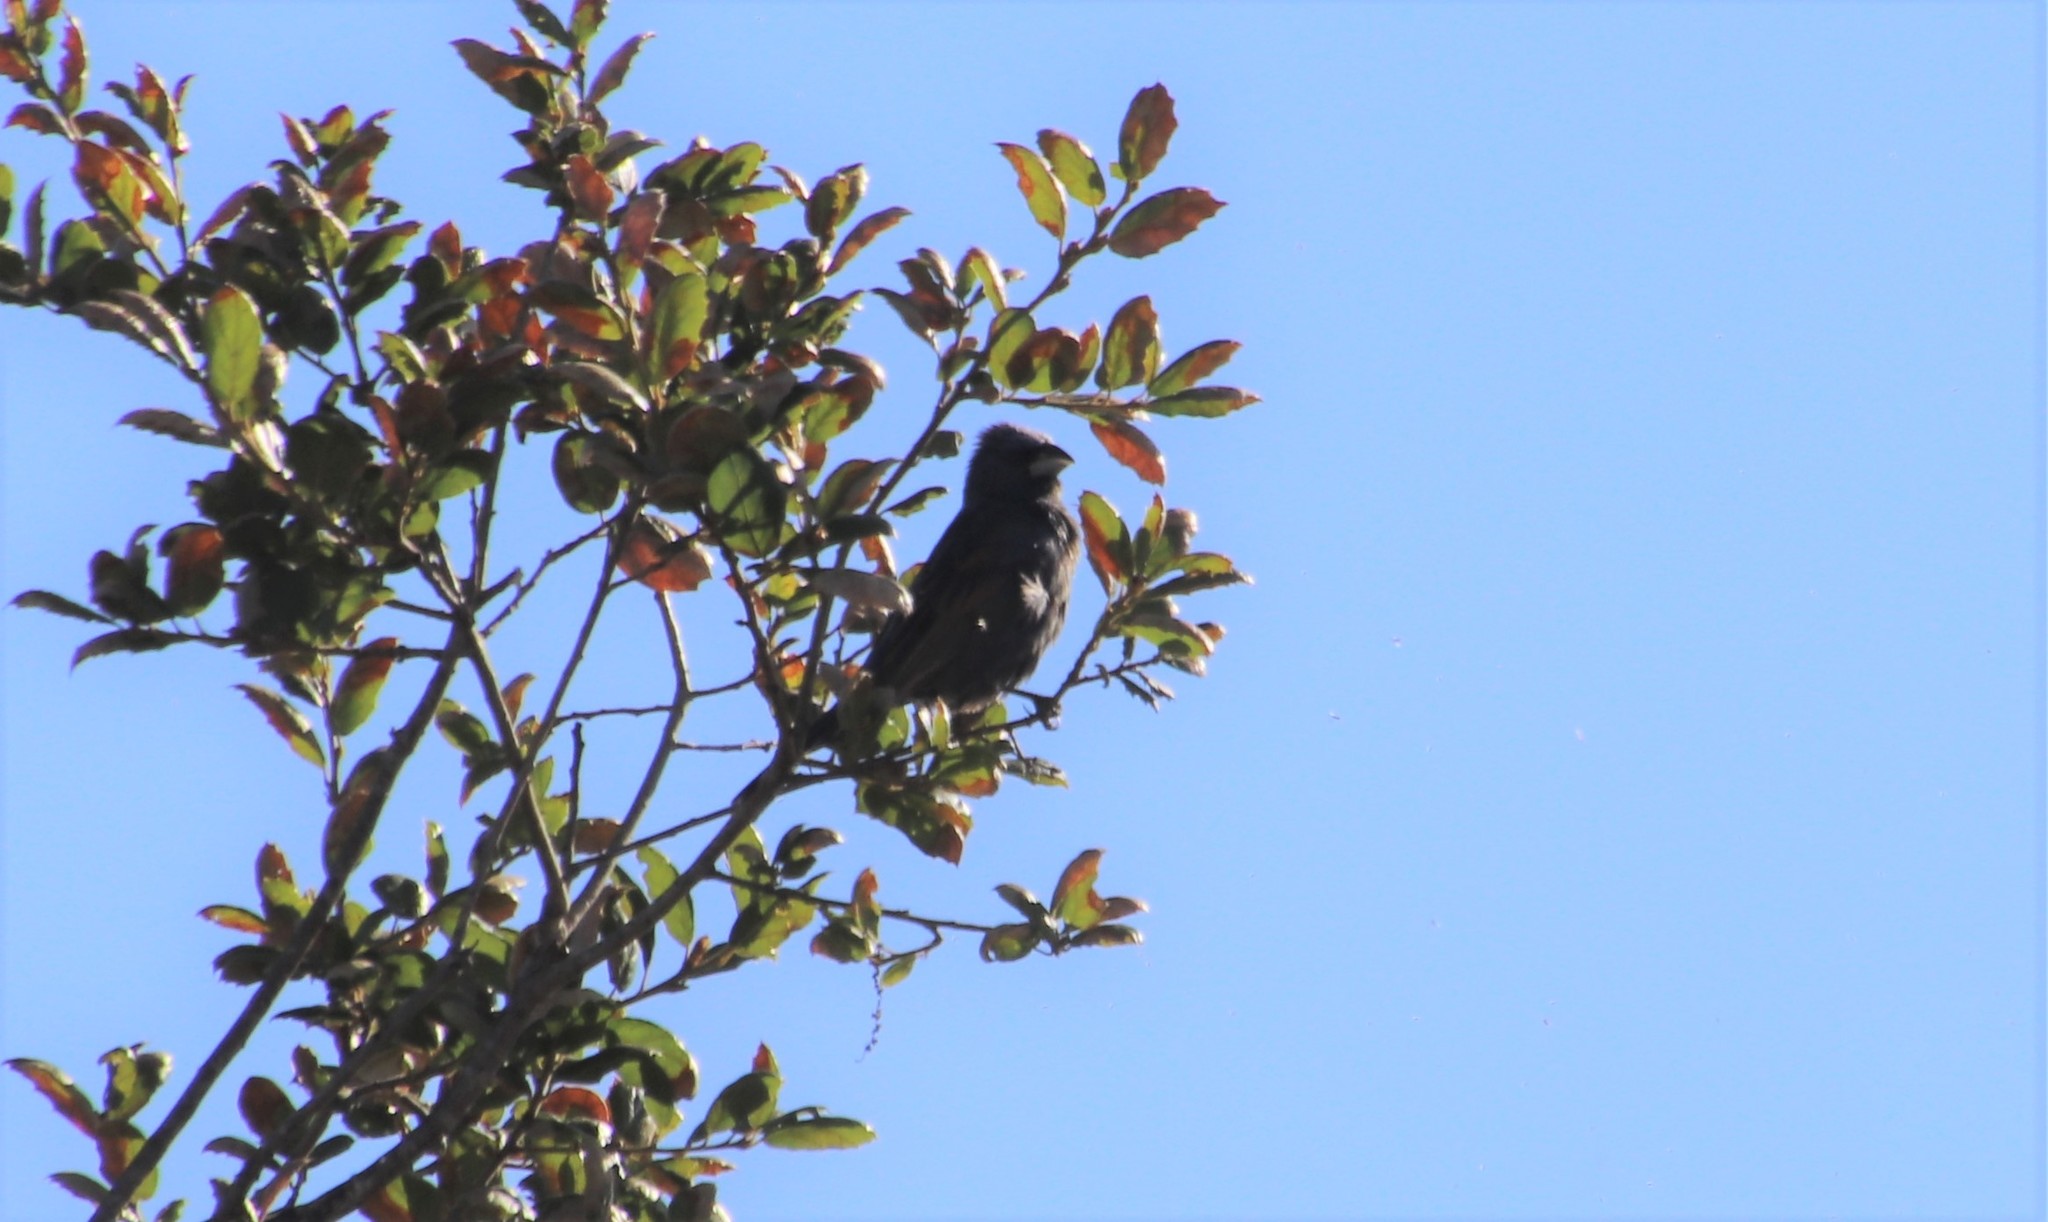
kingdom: Animalia
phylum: Chordata
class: Aves
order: Passeriformes
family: Cardinalidae
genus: Passerina
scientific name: Passerina caerulea
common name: Blue grosbeak
